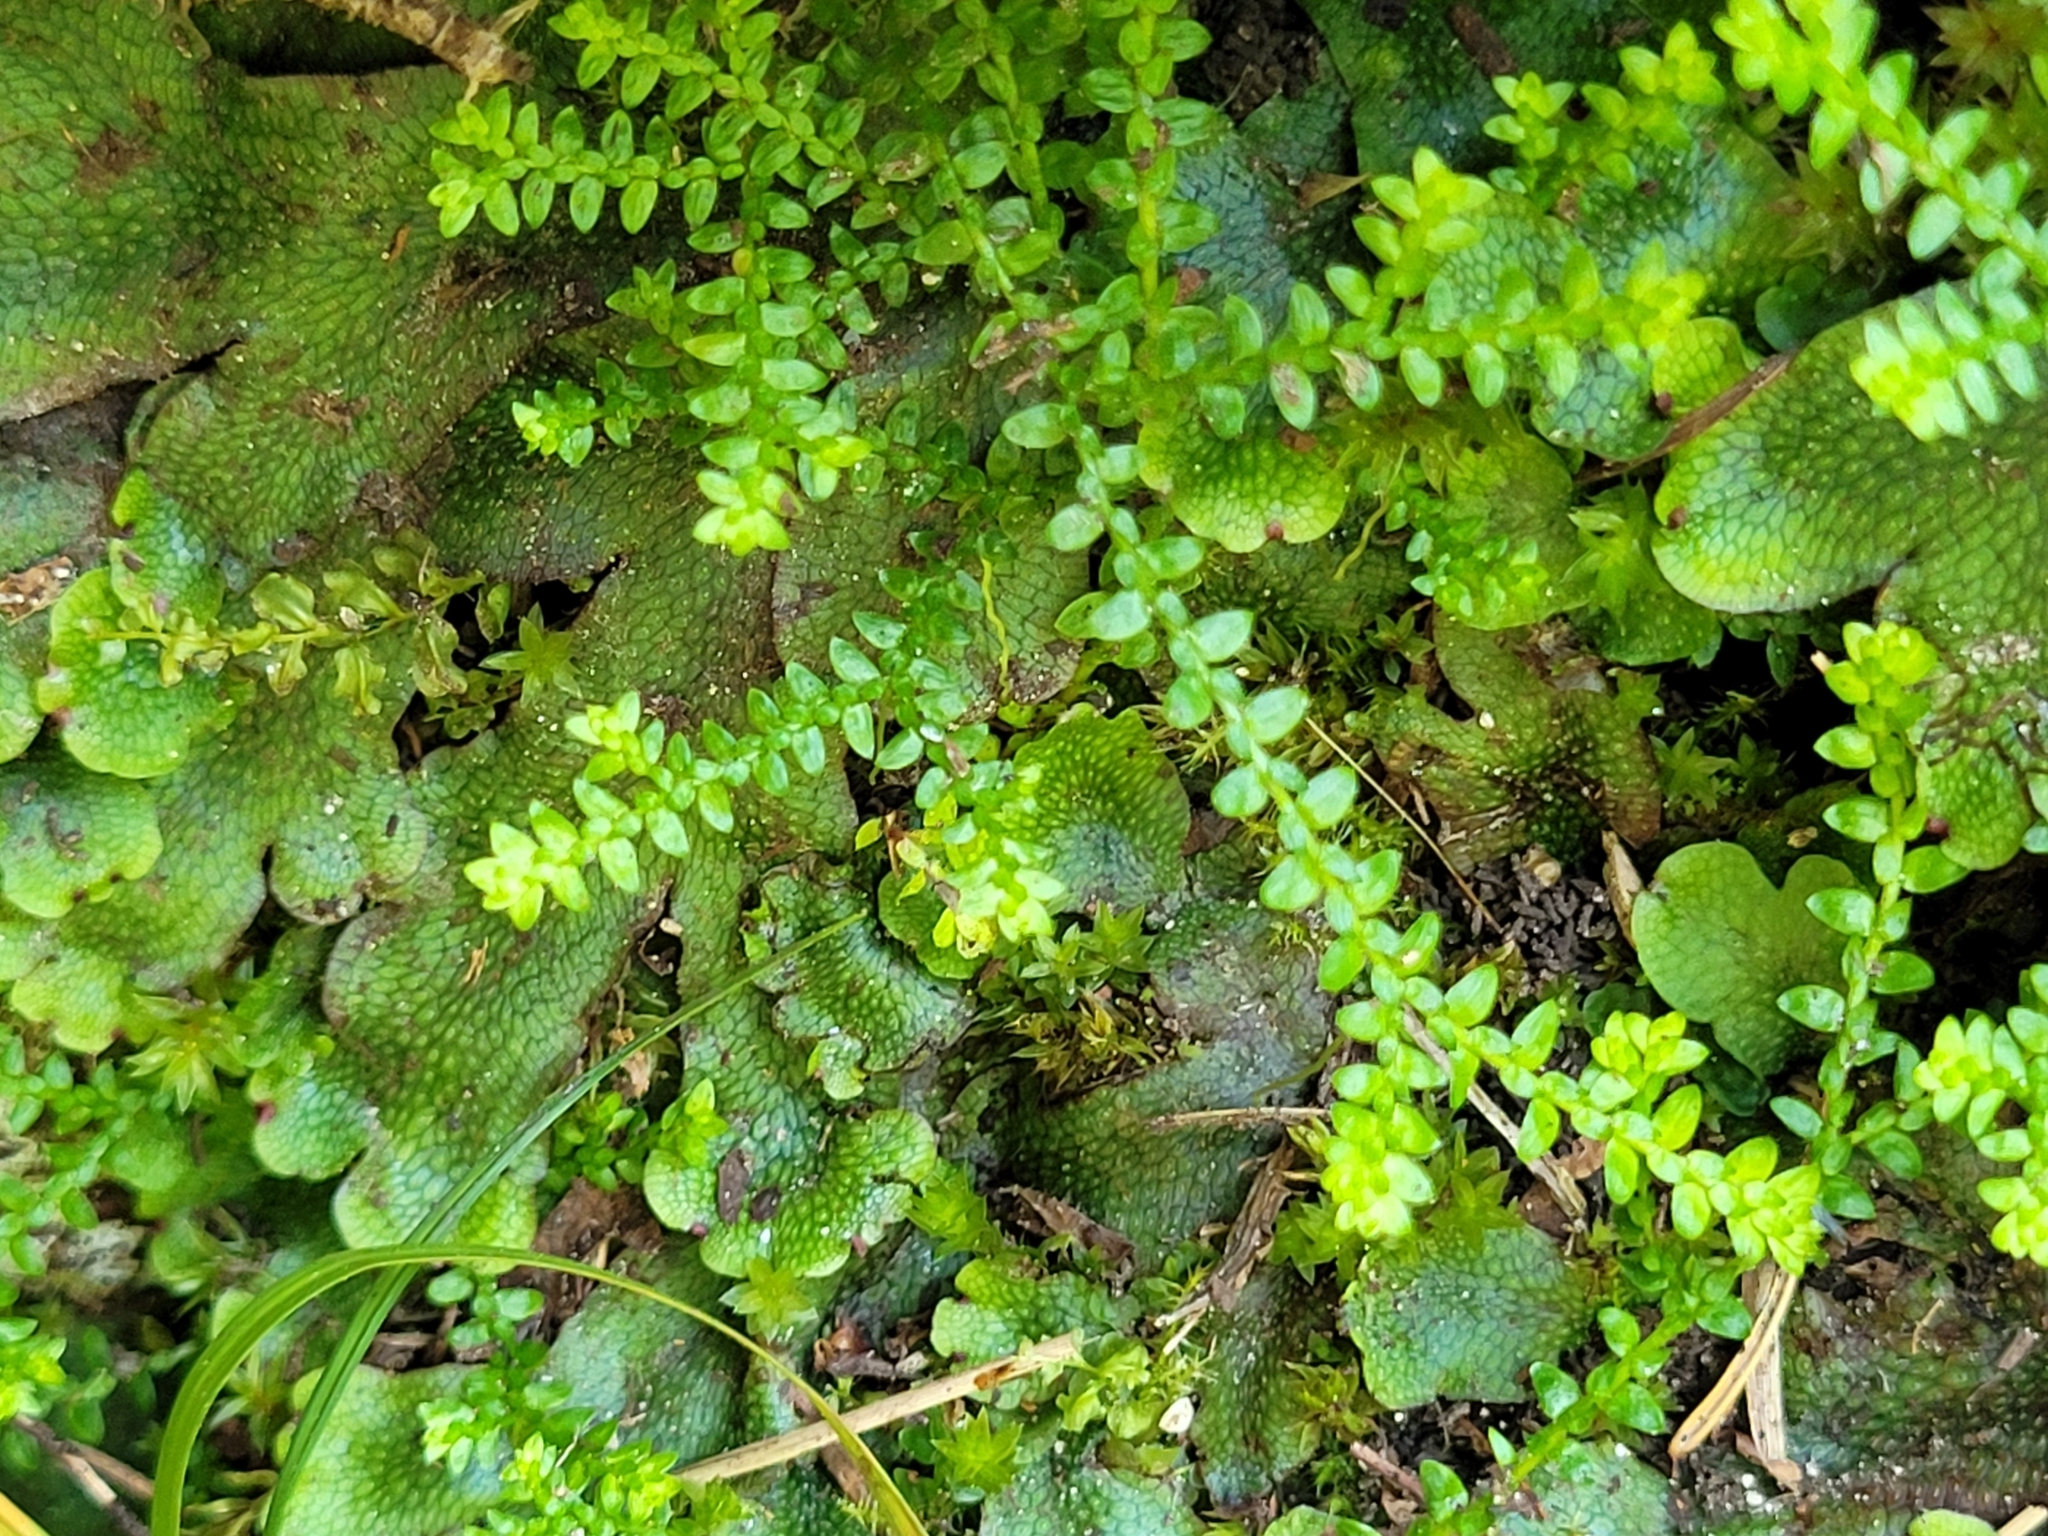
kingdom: Plantae
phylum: Tracheophyta
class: Lycopodiopsida
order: Selaginellales
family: Selaginellaceae
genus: Selaginella
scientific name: Selaginella helvetica
